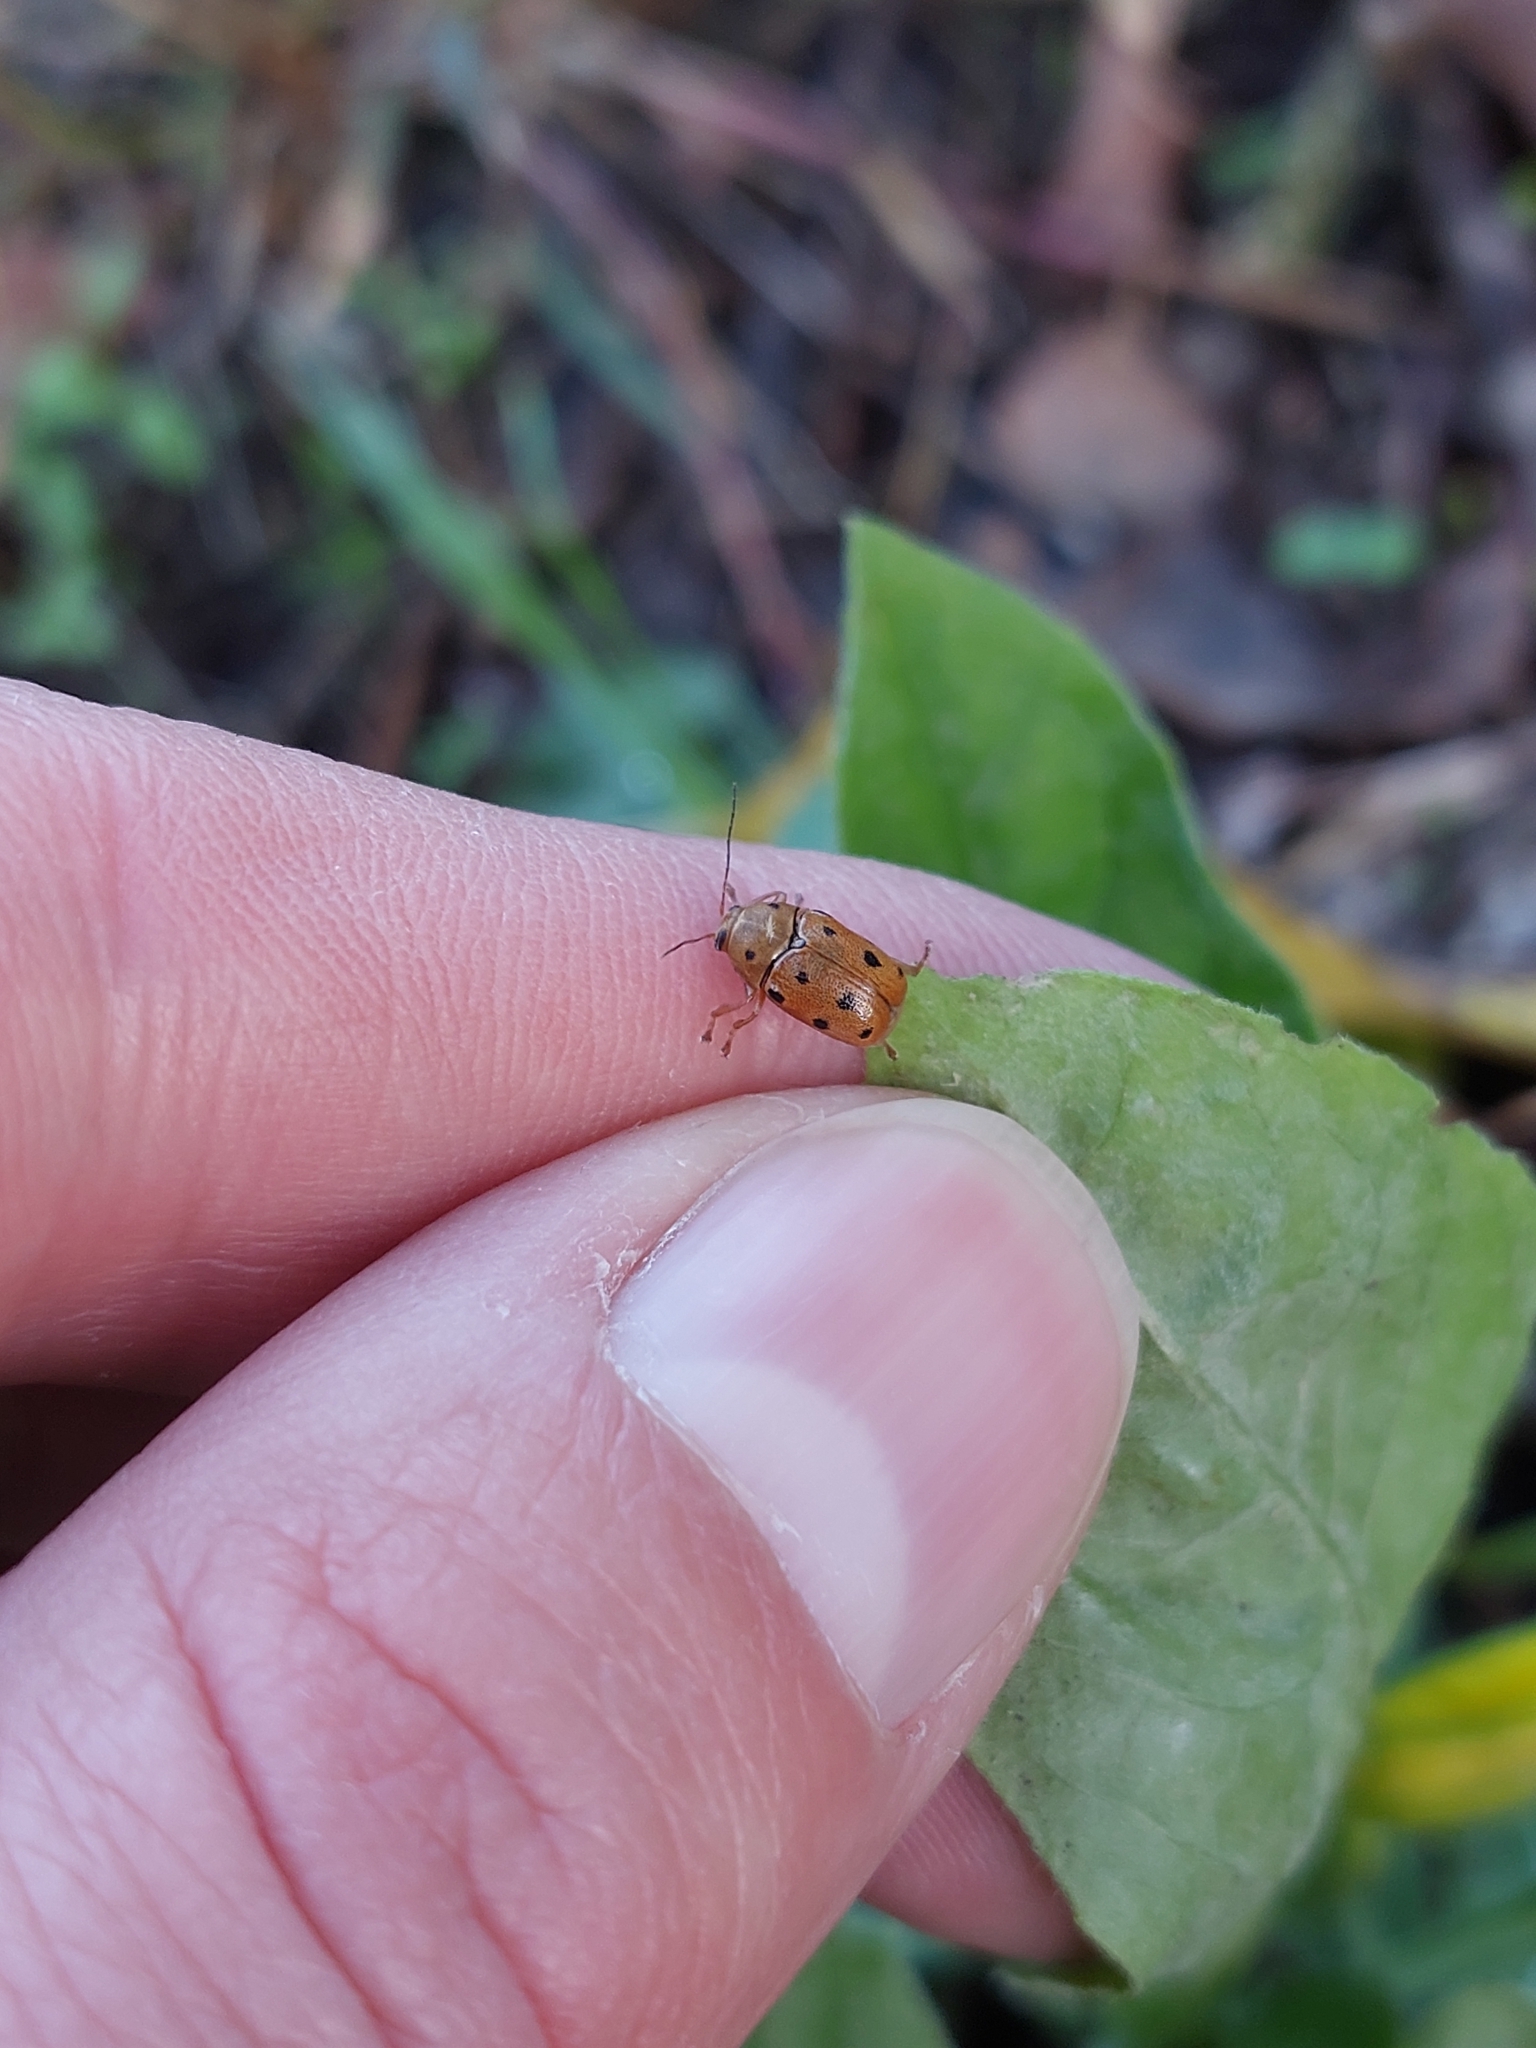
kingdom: Animalia
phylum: Arthropoda
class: Insecta
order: Coleoptera
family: Chrysomelidae
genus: Cryptocephalus
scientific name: Cryptocephalus octomaculatus
